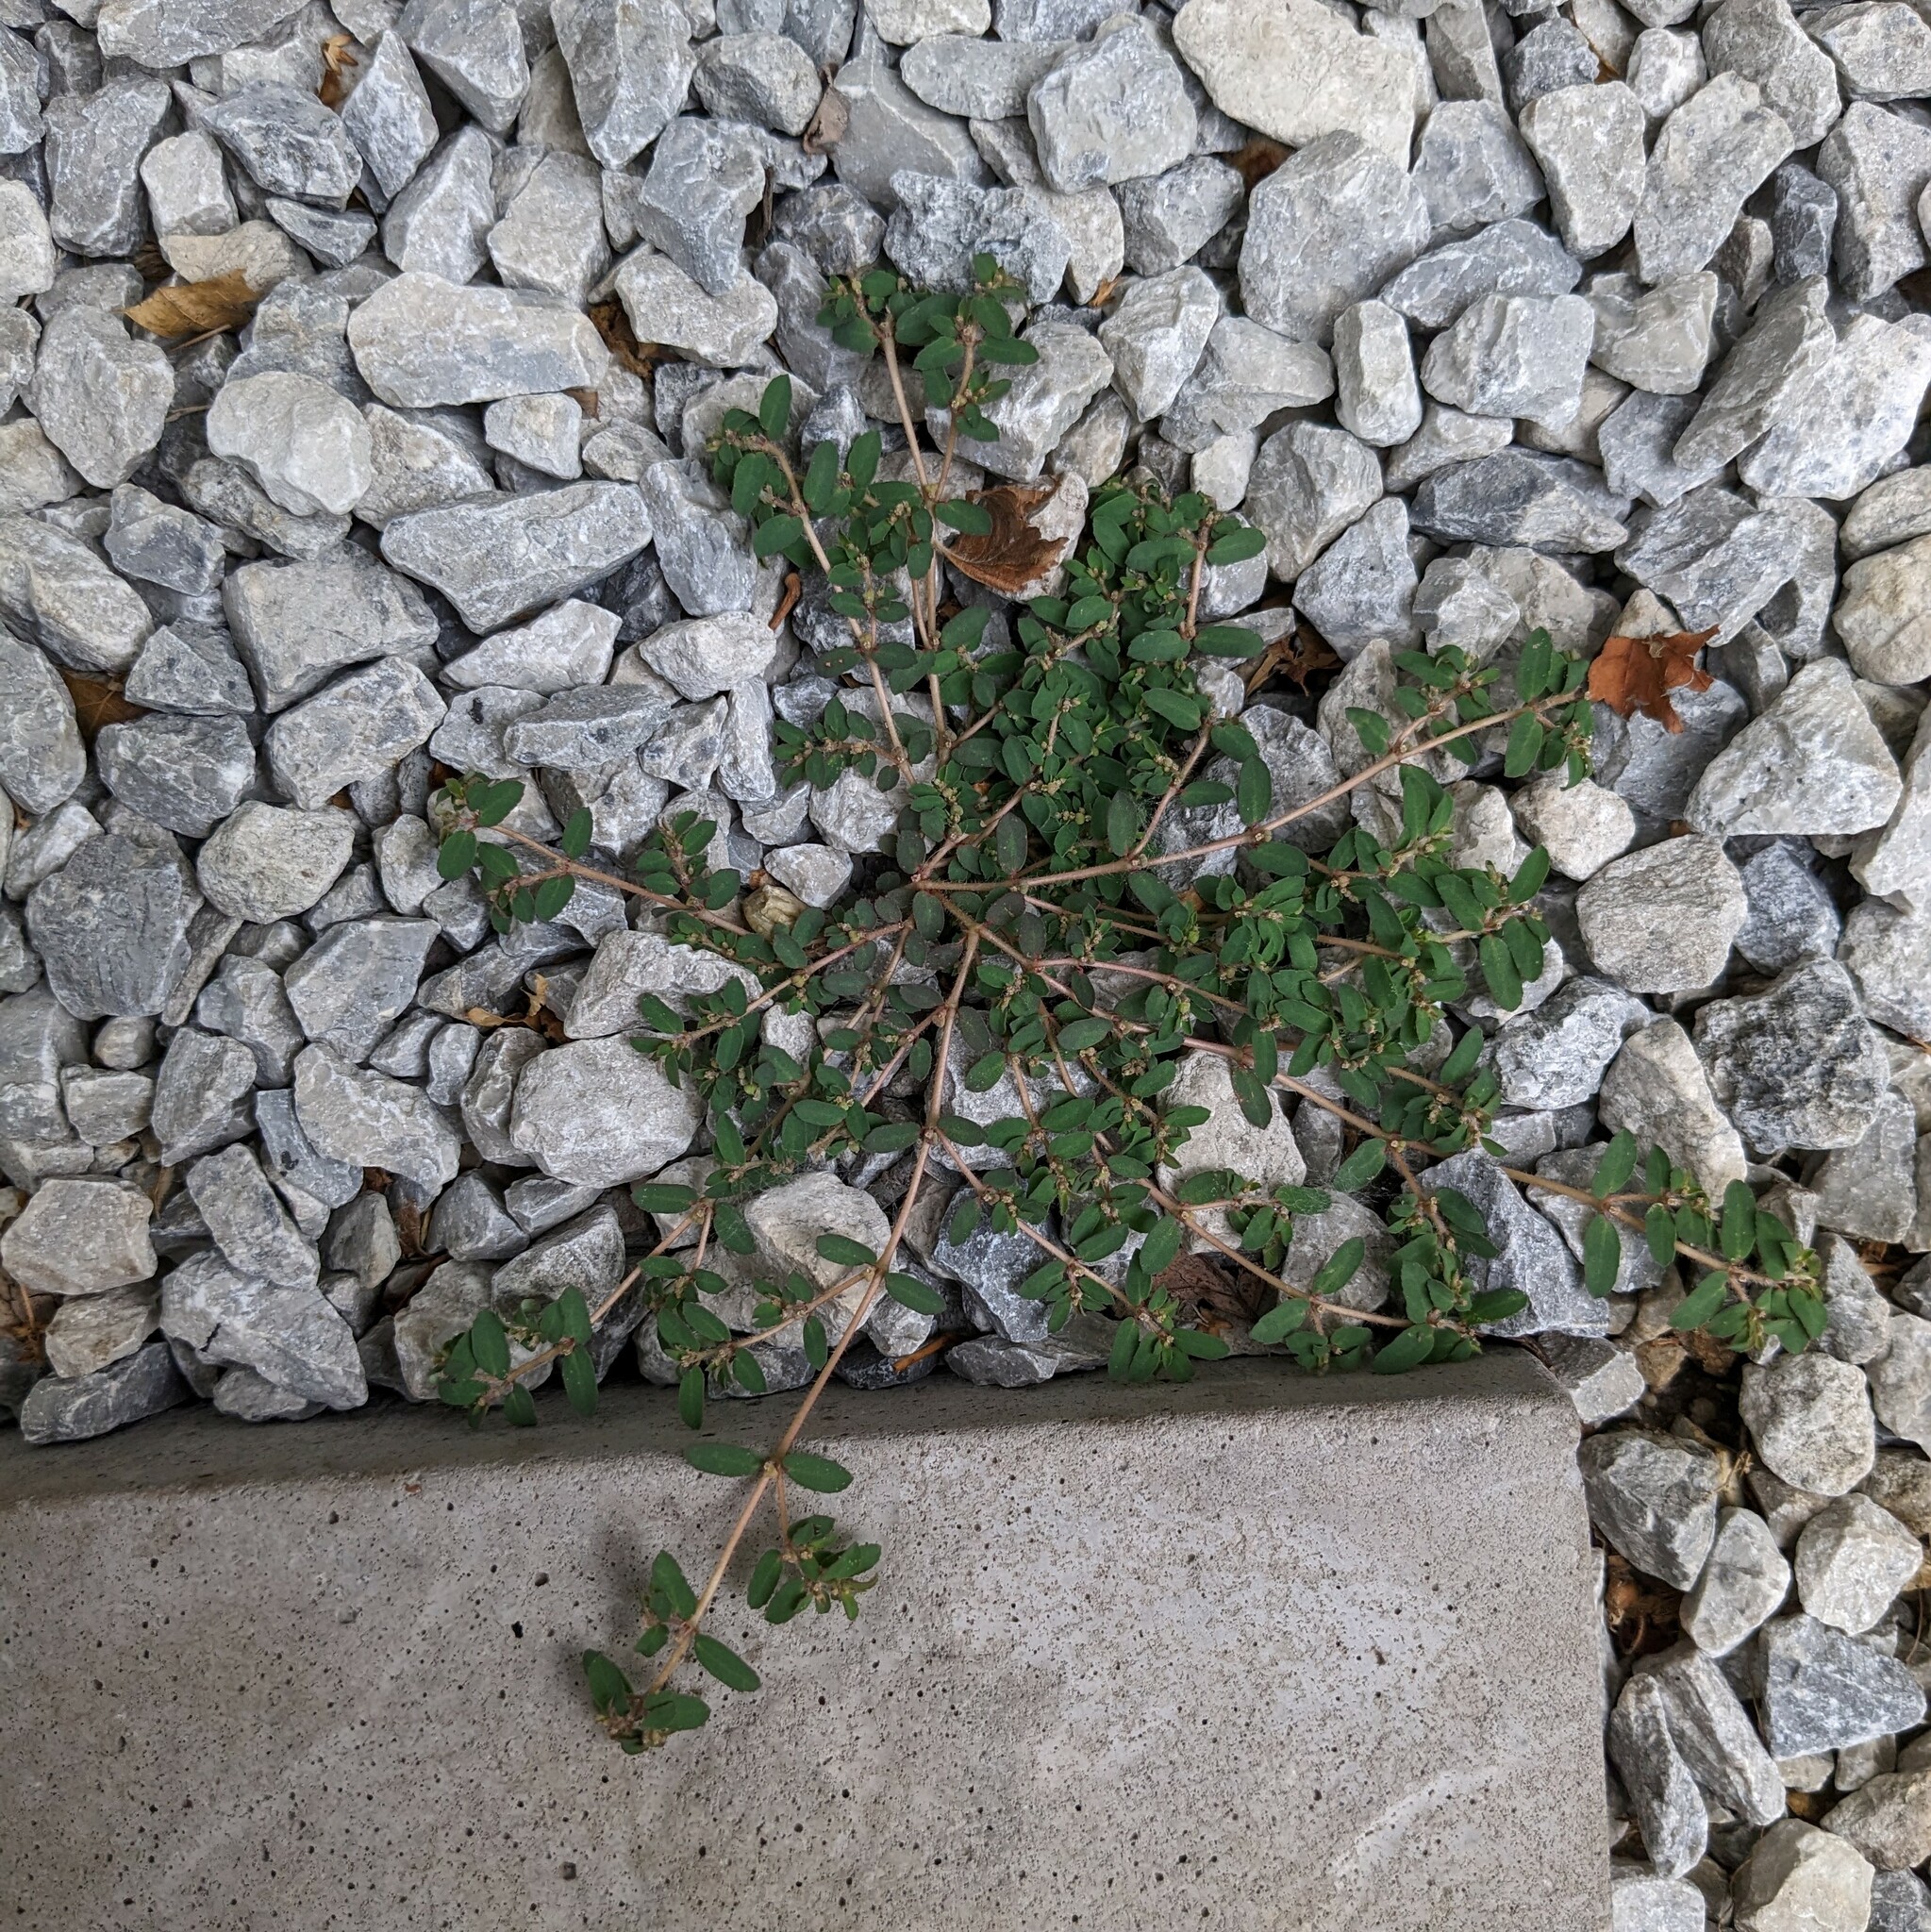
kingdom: Plantae
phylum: Tracheophyta
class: Magnoliopsida
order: Malpighiales
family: Euphorbiaceae
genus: Euphorbia
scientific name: Euphorbia maculata
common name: Spotted spurge
